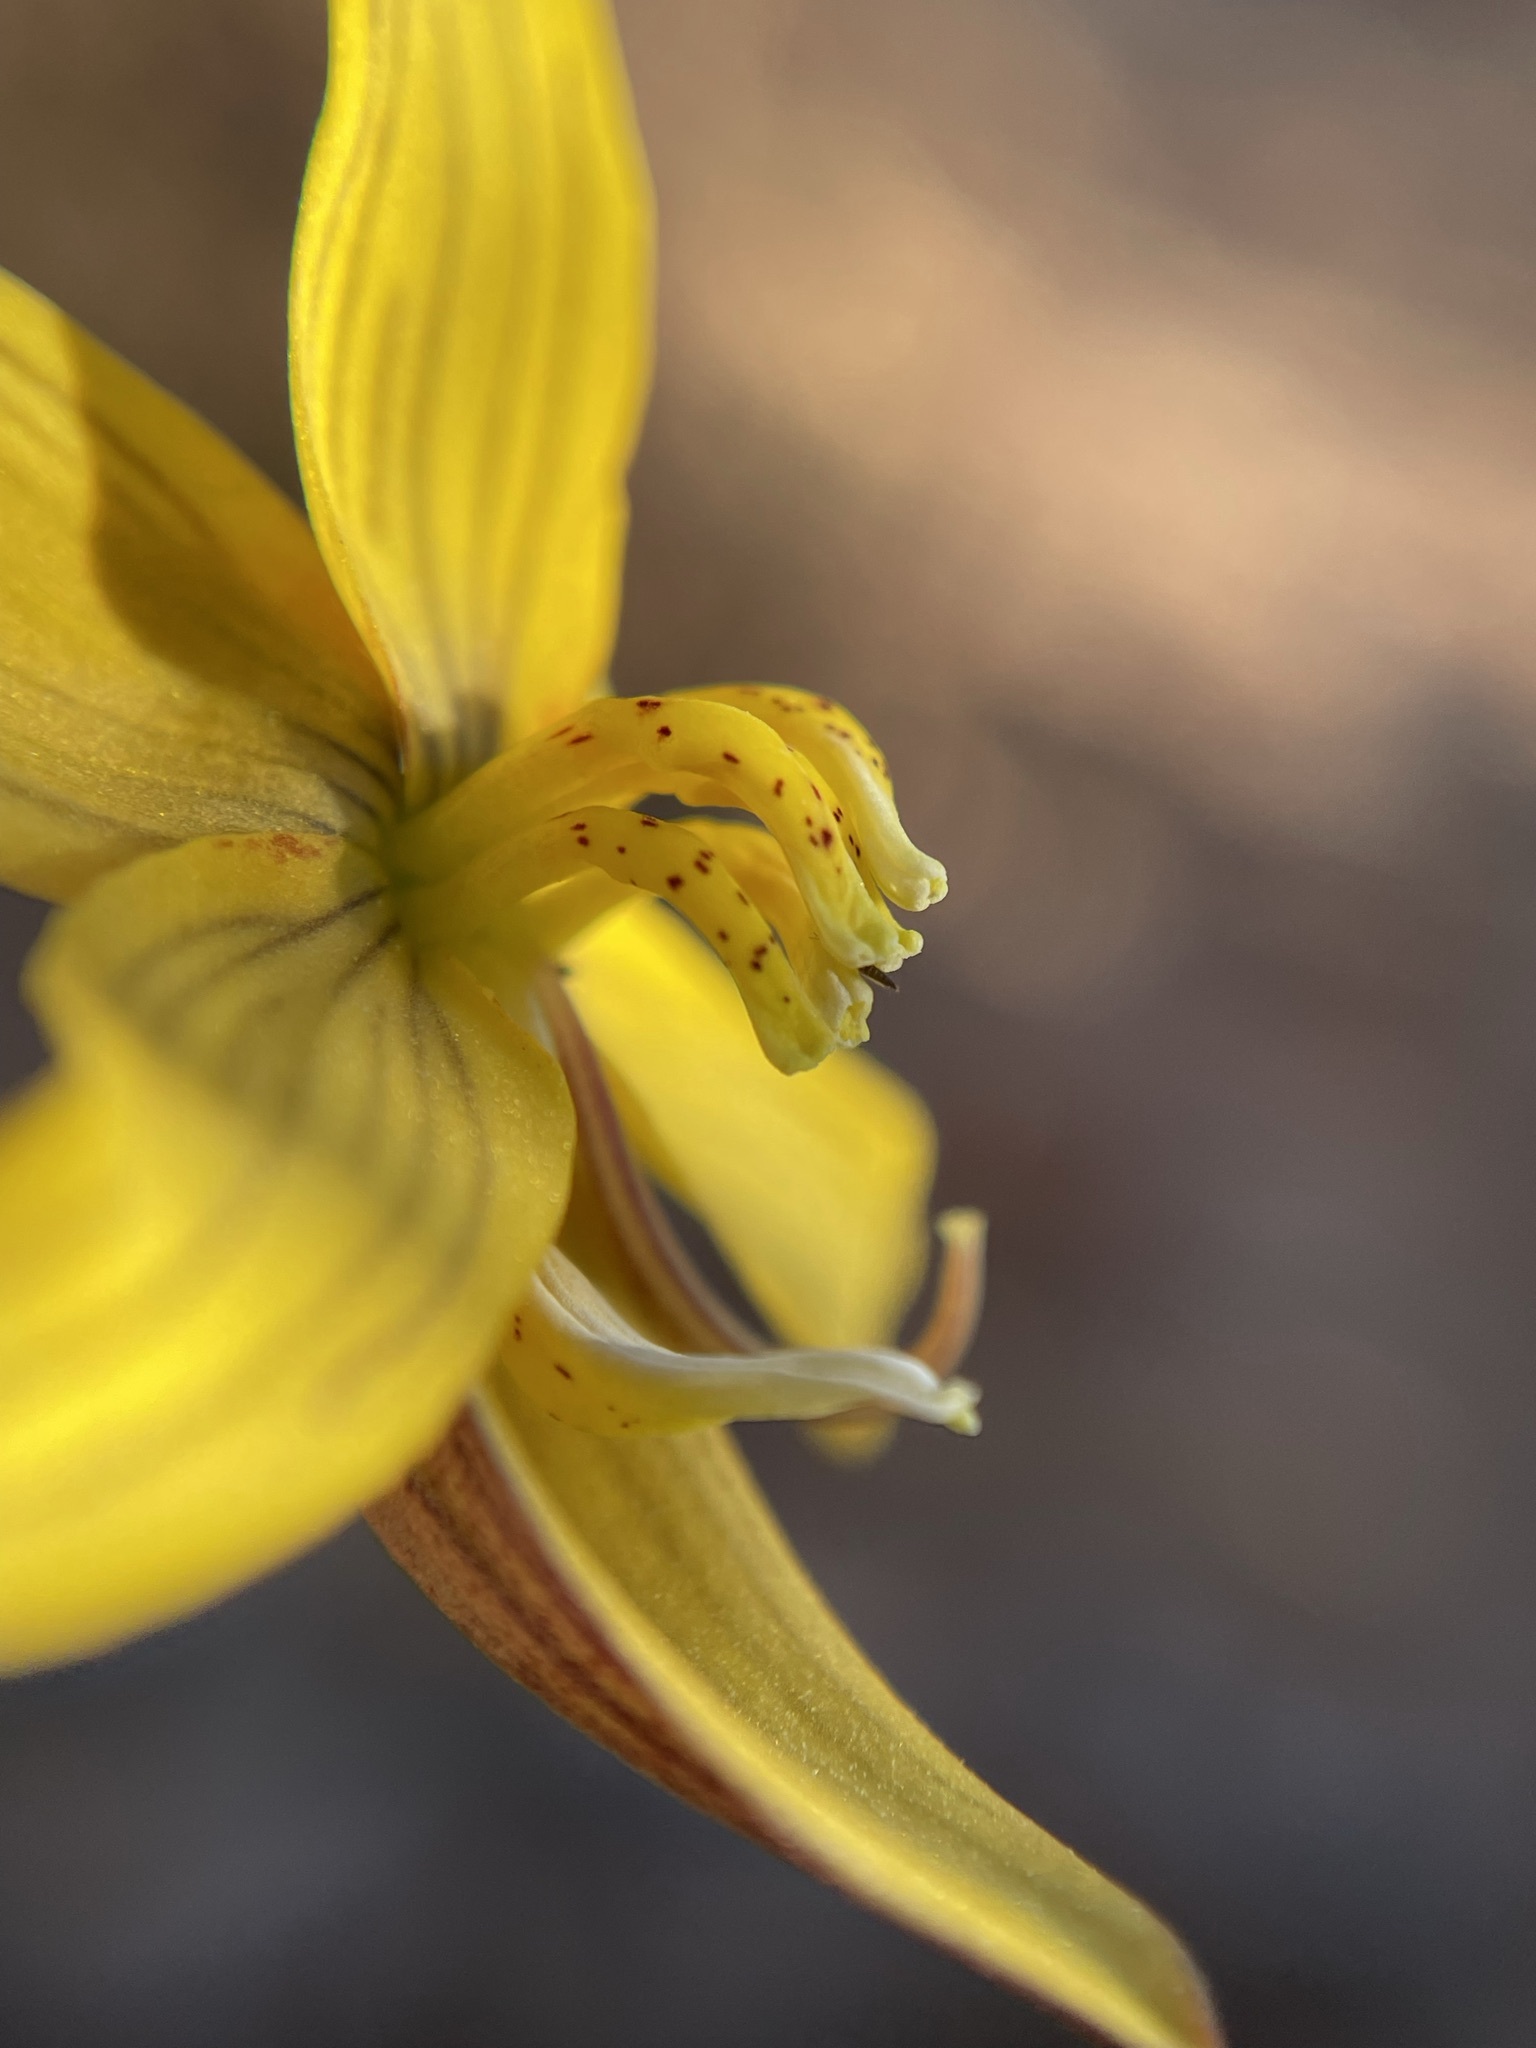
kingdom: Plantae
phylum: Tracheophyta
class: Liliopsida
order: Asparagales
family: Tecophilaeaceae
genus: Cyanella
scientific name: Cyanella lutea
